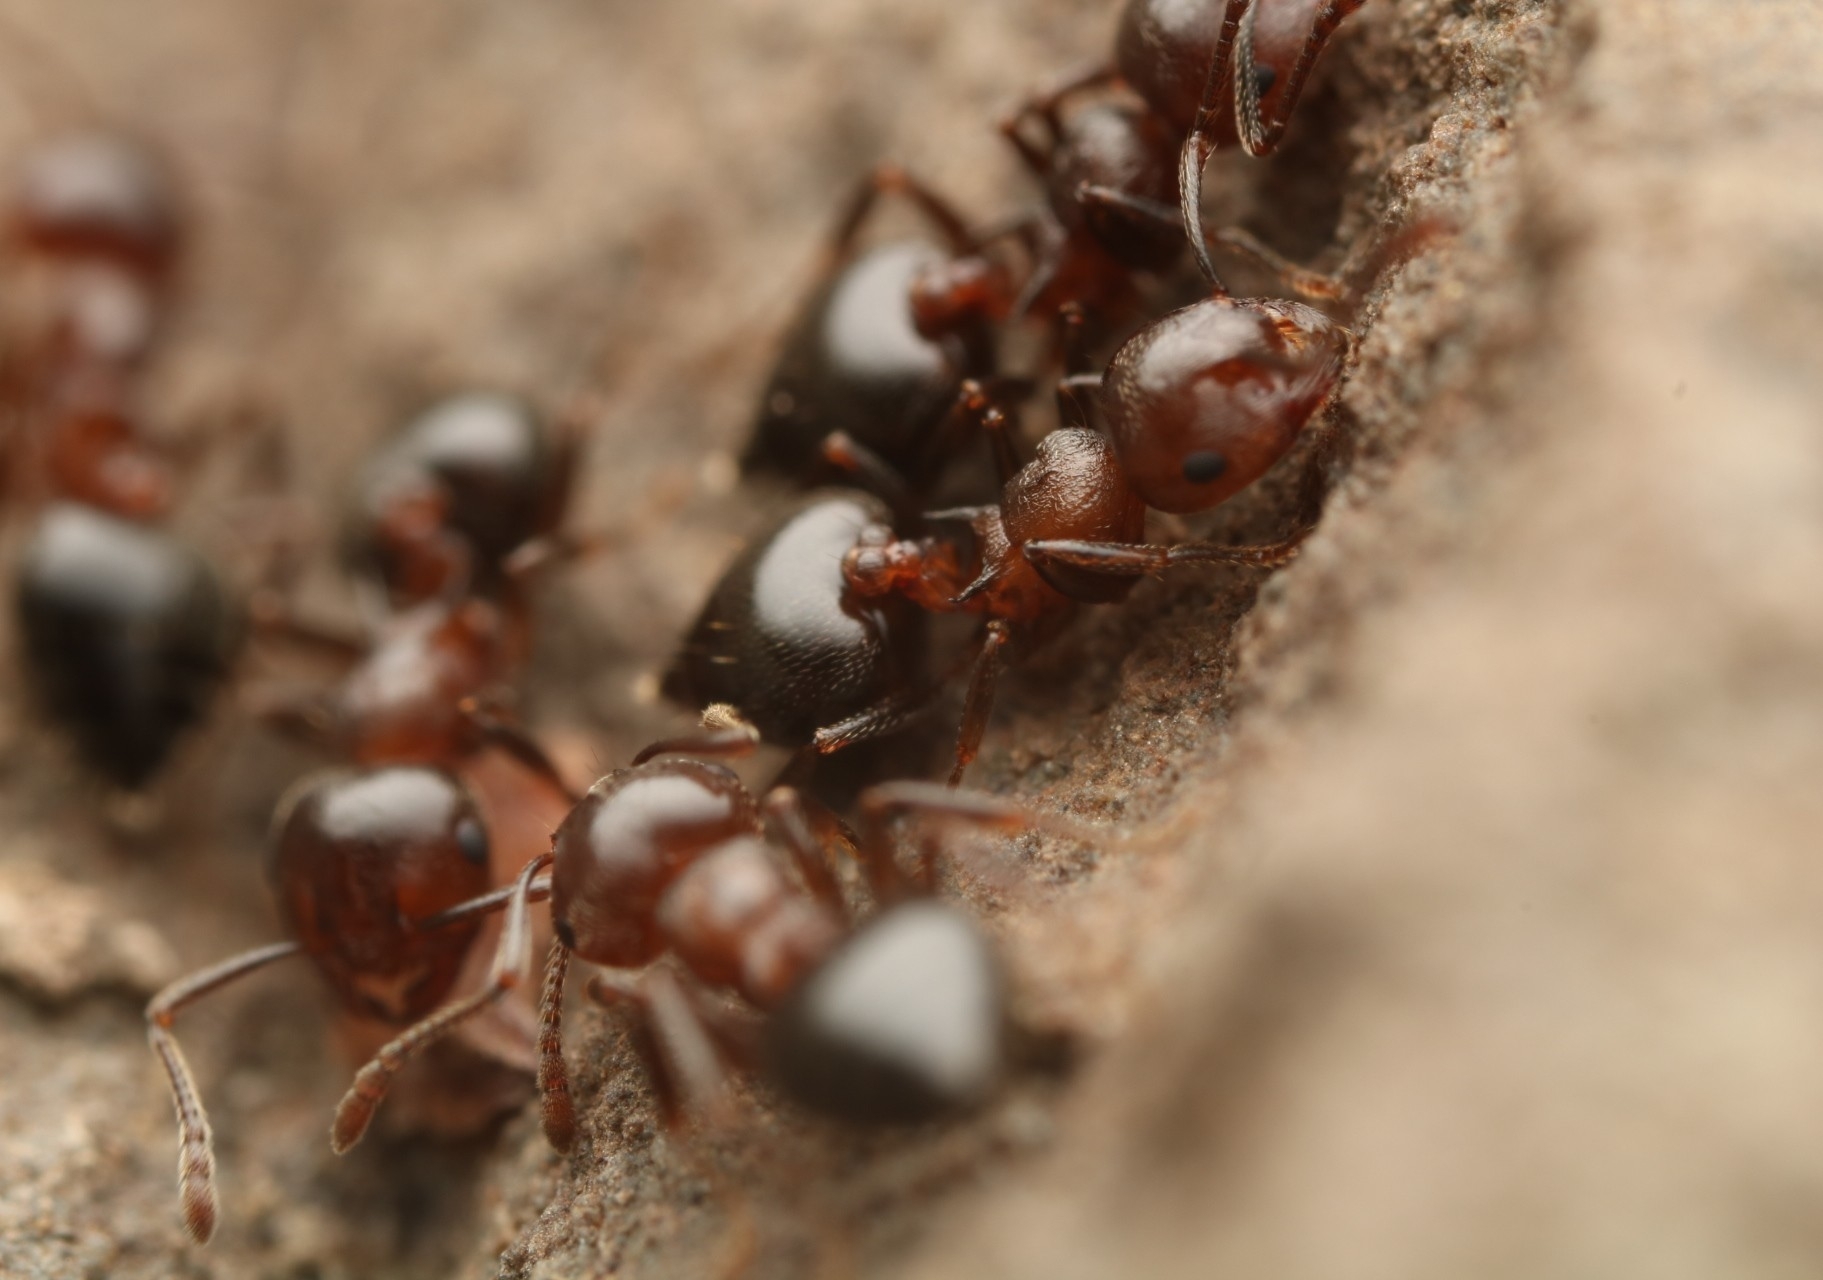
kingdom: Animalia
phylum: Arthropoda
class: Insecta
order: Hymenoptera
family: Formicidae
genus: Crematogaster
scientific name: Crematogaster cerasi
